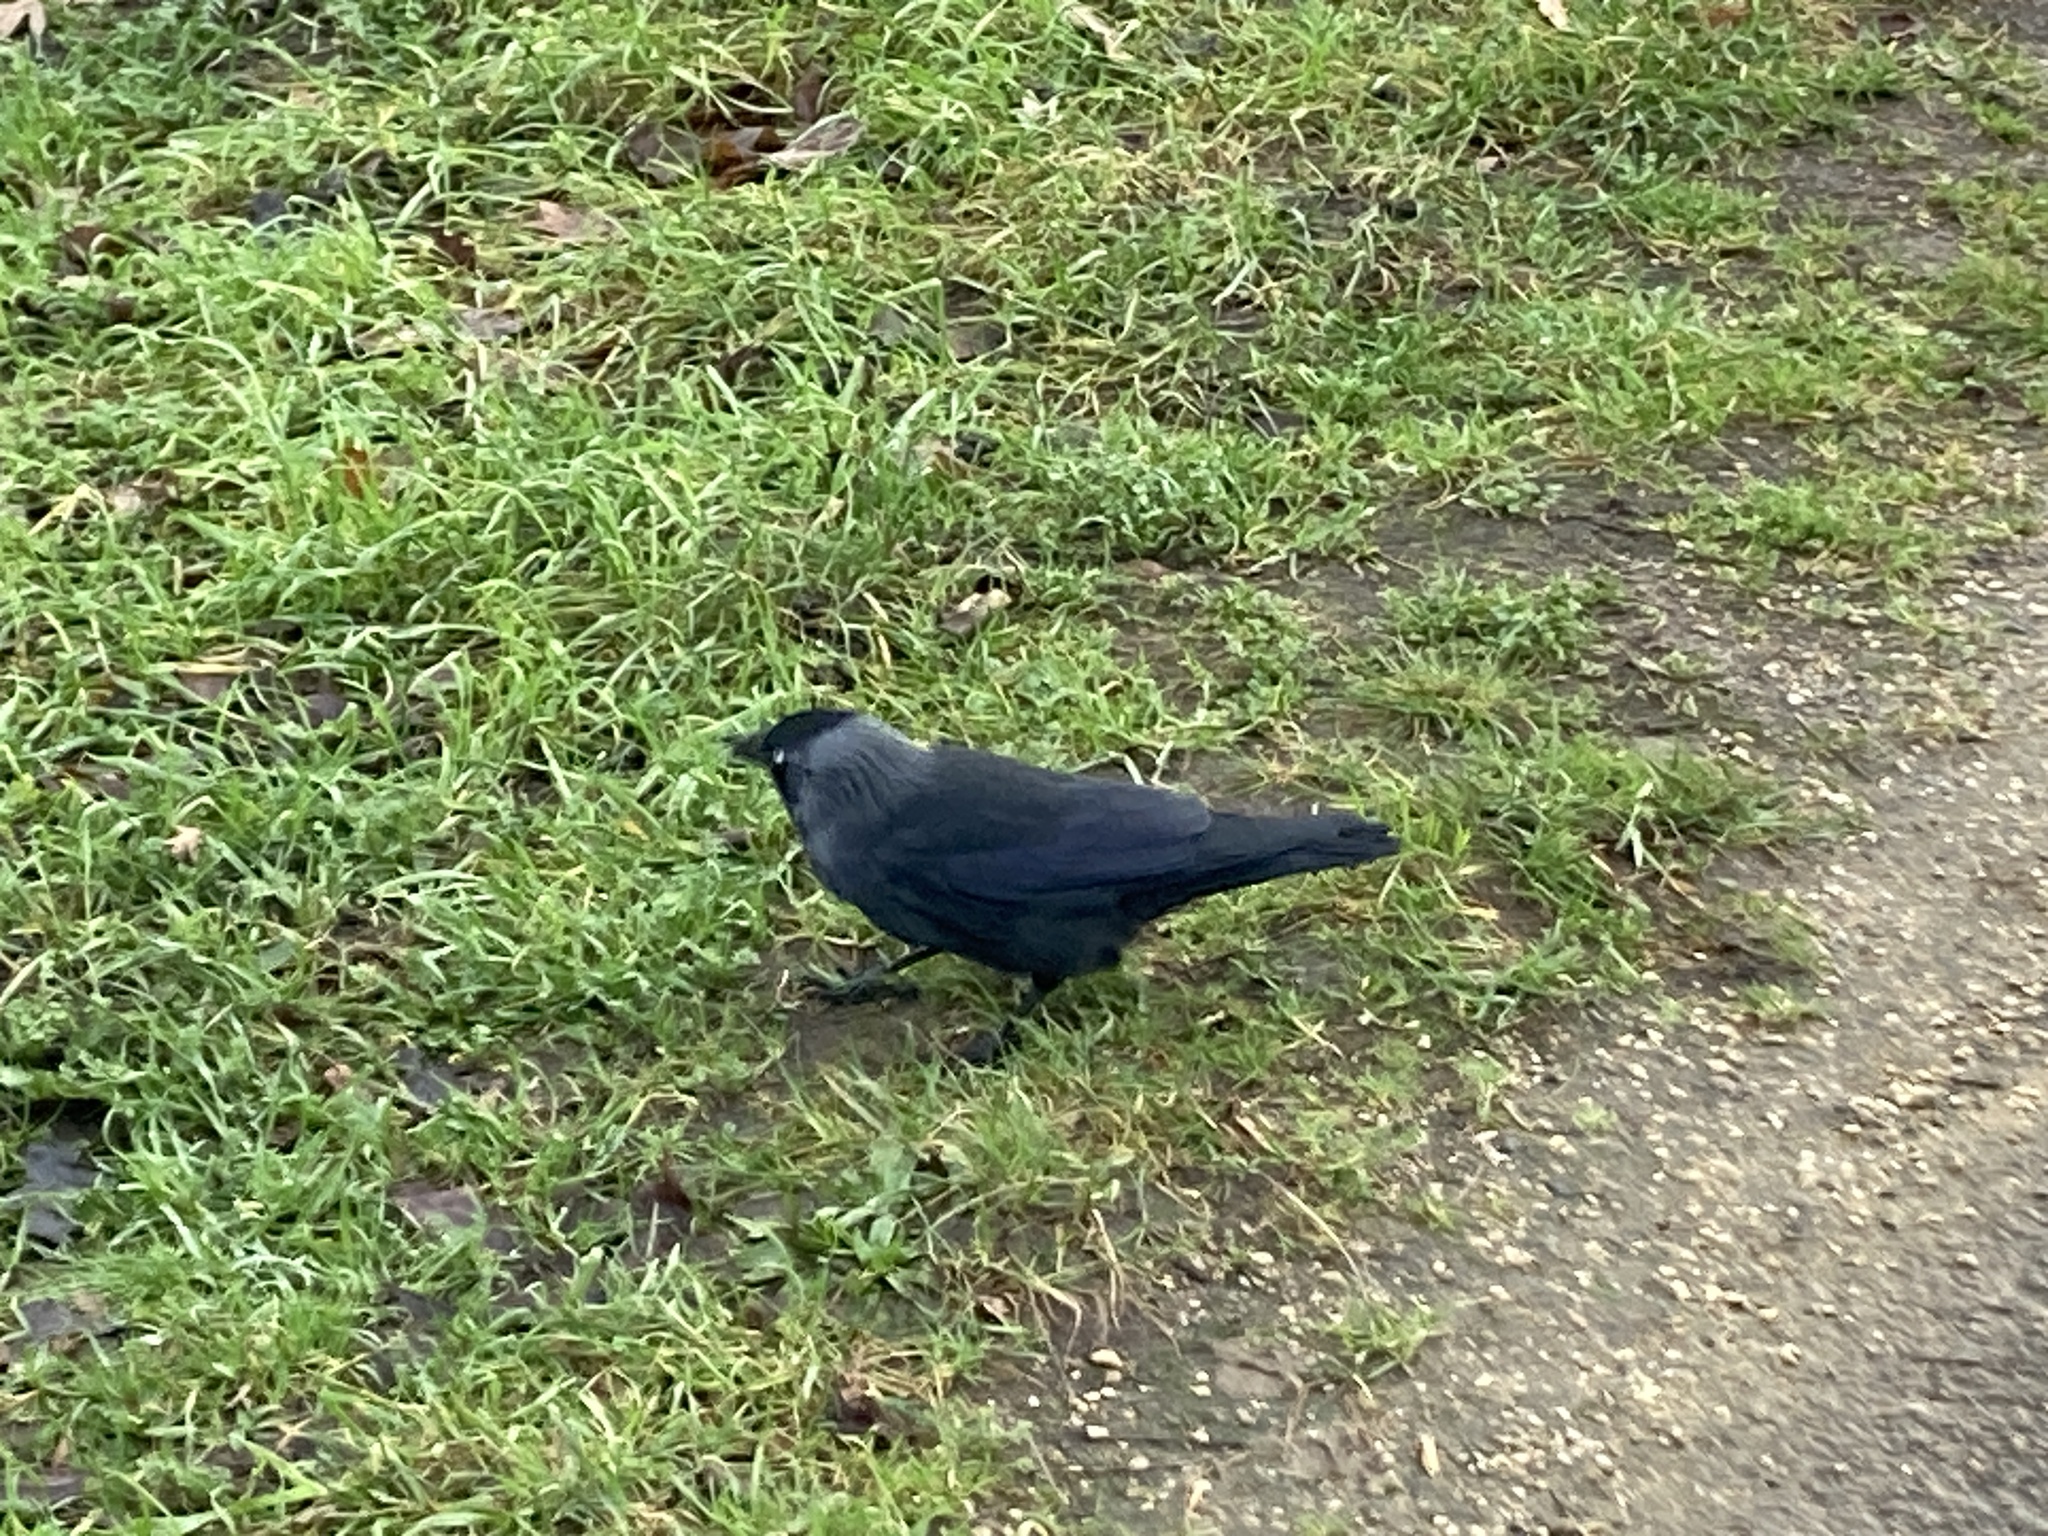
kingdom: Animalia
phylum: Chordata
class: Aves
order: Passeriformes
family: Corvidae
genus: Coloeus
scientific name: Coloeus monedula
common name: Western jackdaw
